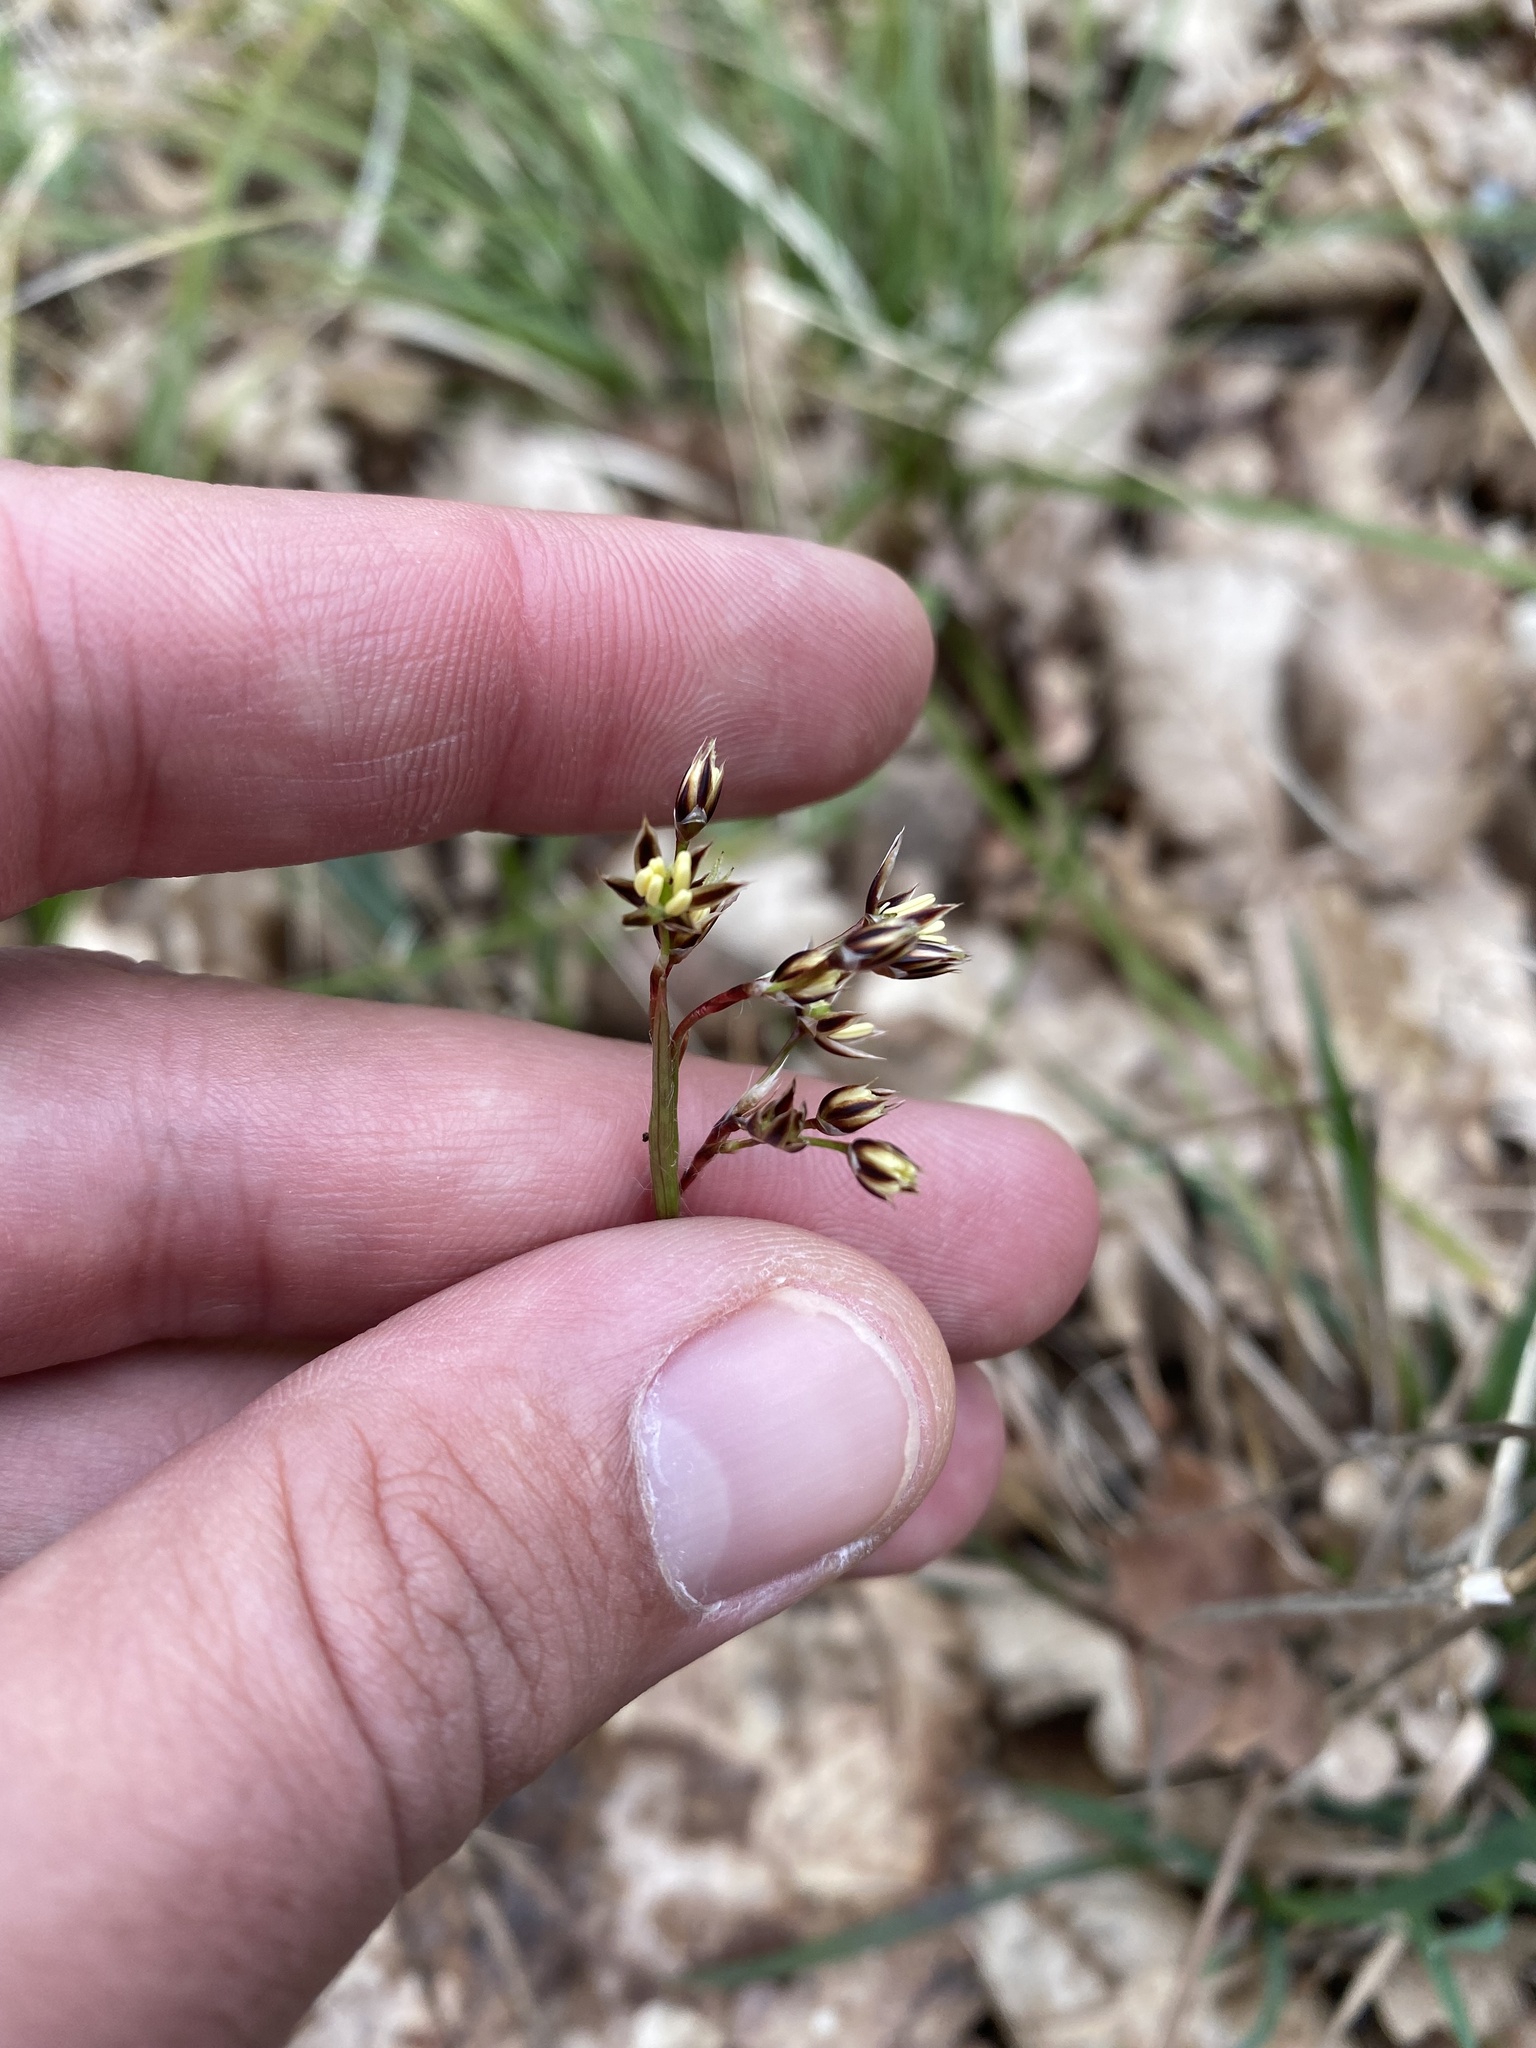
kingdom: Plantae
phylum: Tracheophyta
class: Liliopsida
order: Poales
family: Juncaceae
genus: Luzula
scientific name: Luzula forsteri
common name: Southern wood-rush
